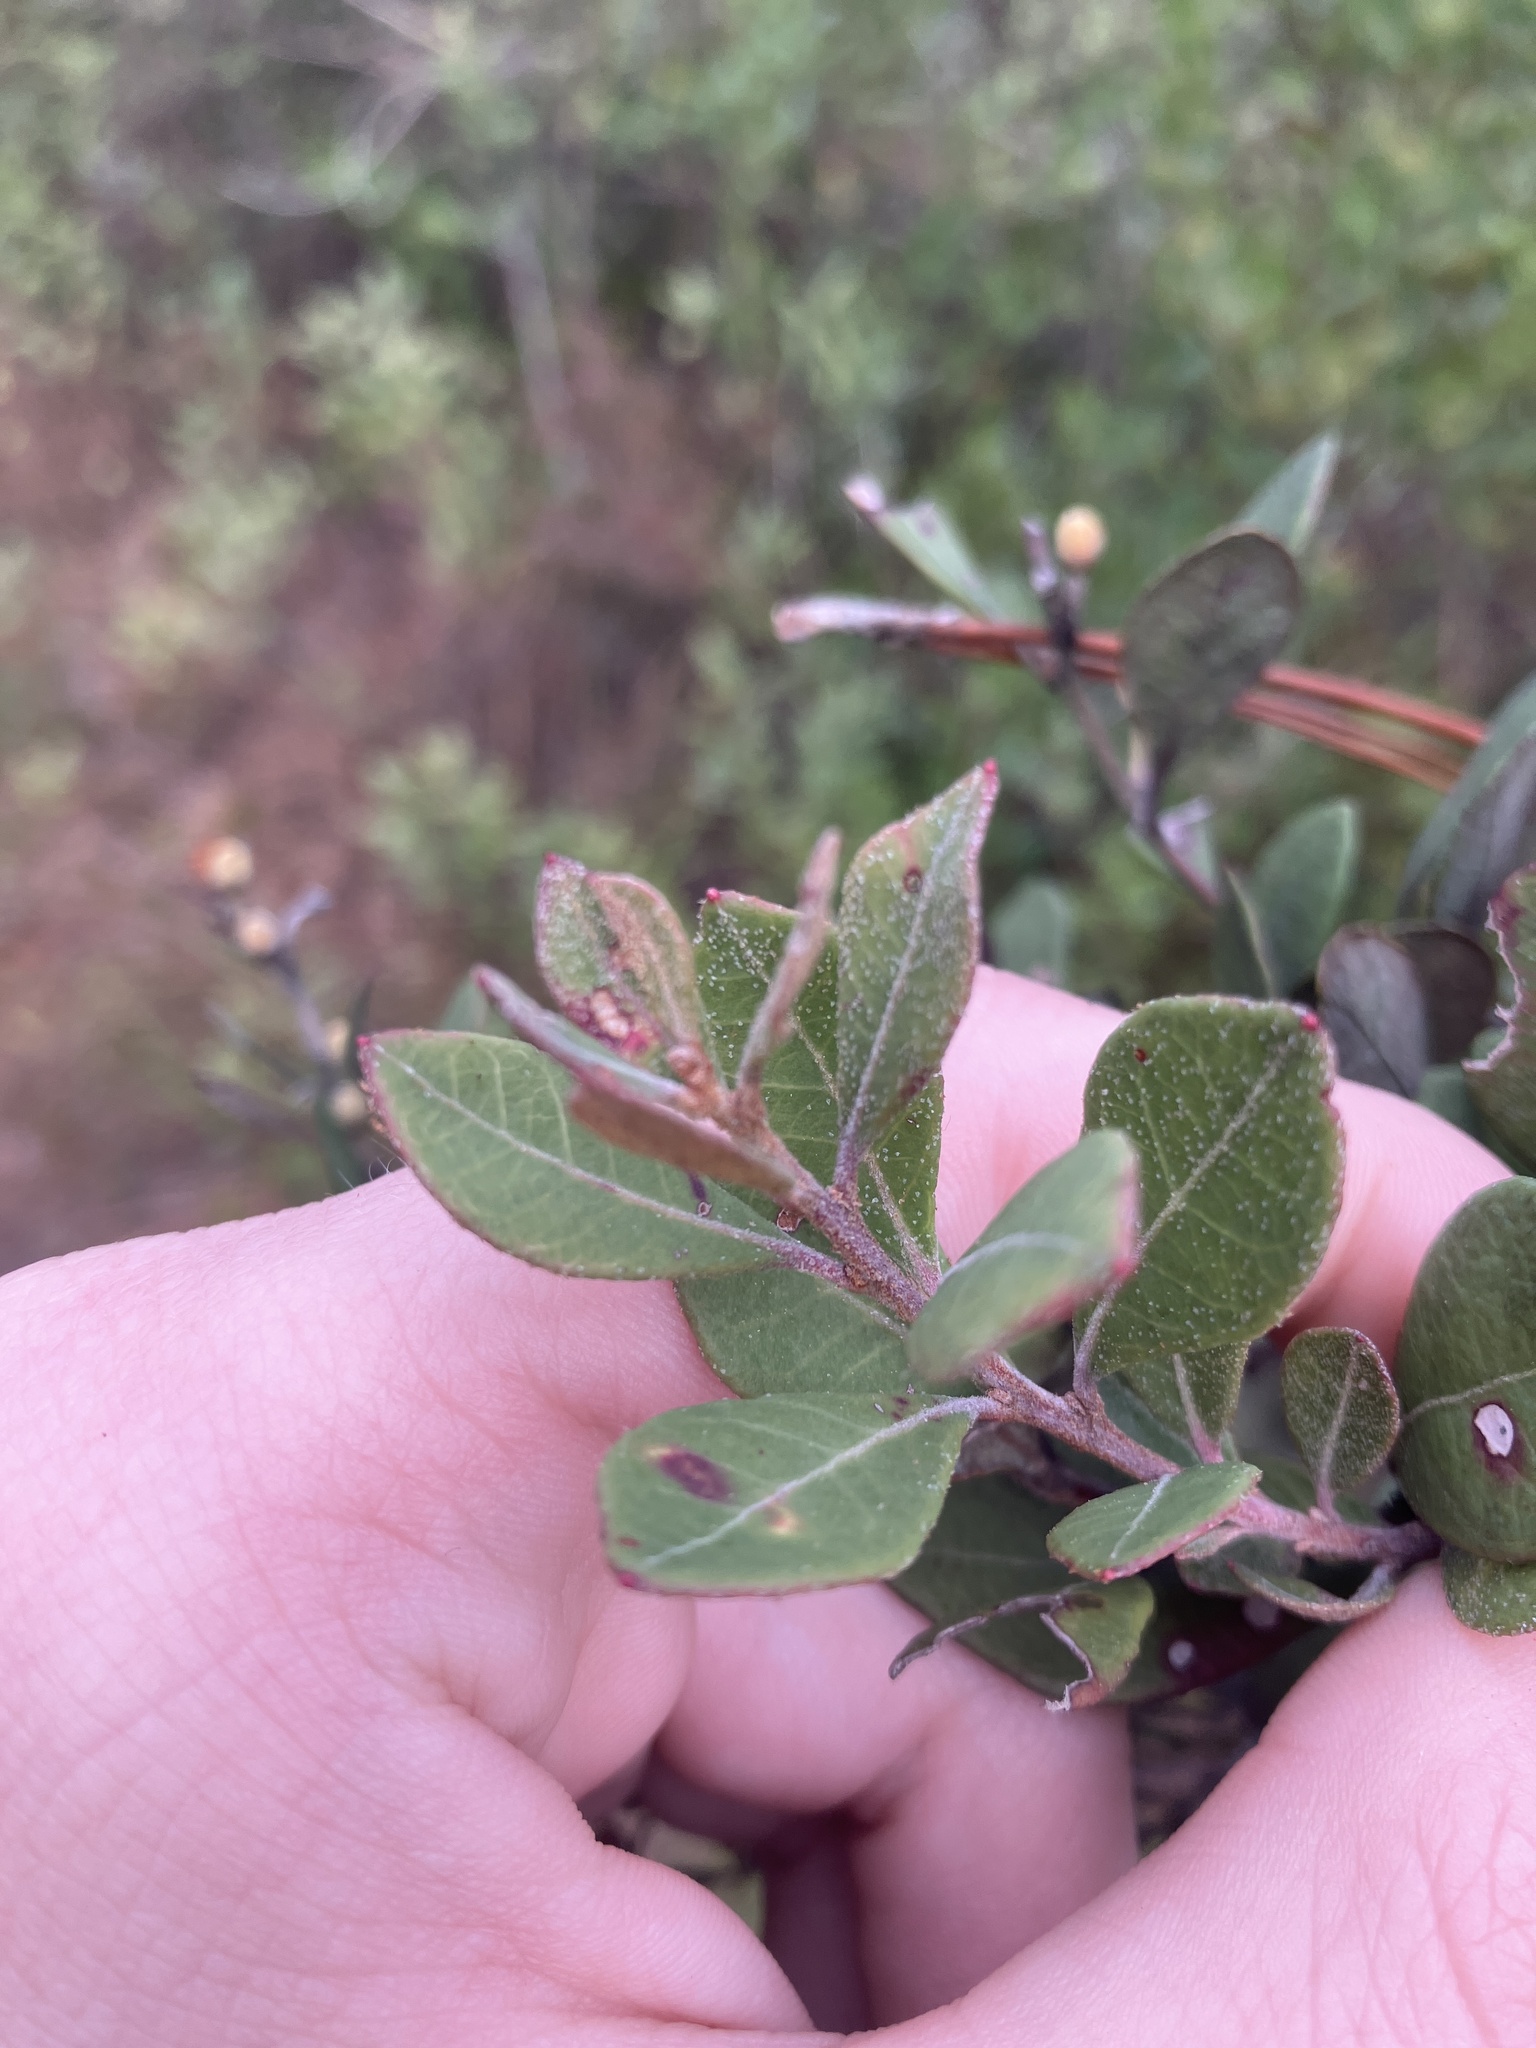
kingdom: Plantae
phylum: Tracheophyta
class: Magnoliopsida
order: Ericales
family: Ericaceae
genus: Lyonia
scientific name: Lyonia fruticosa
